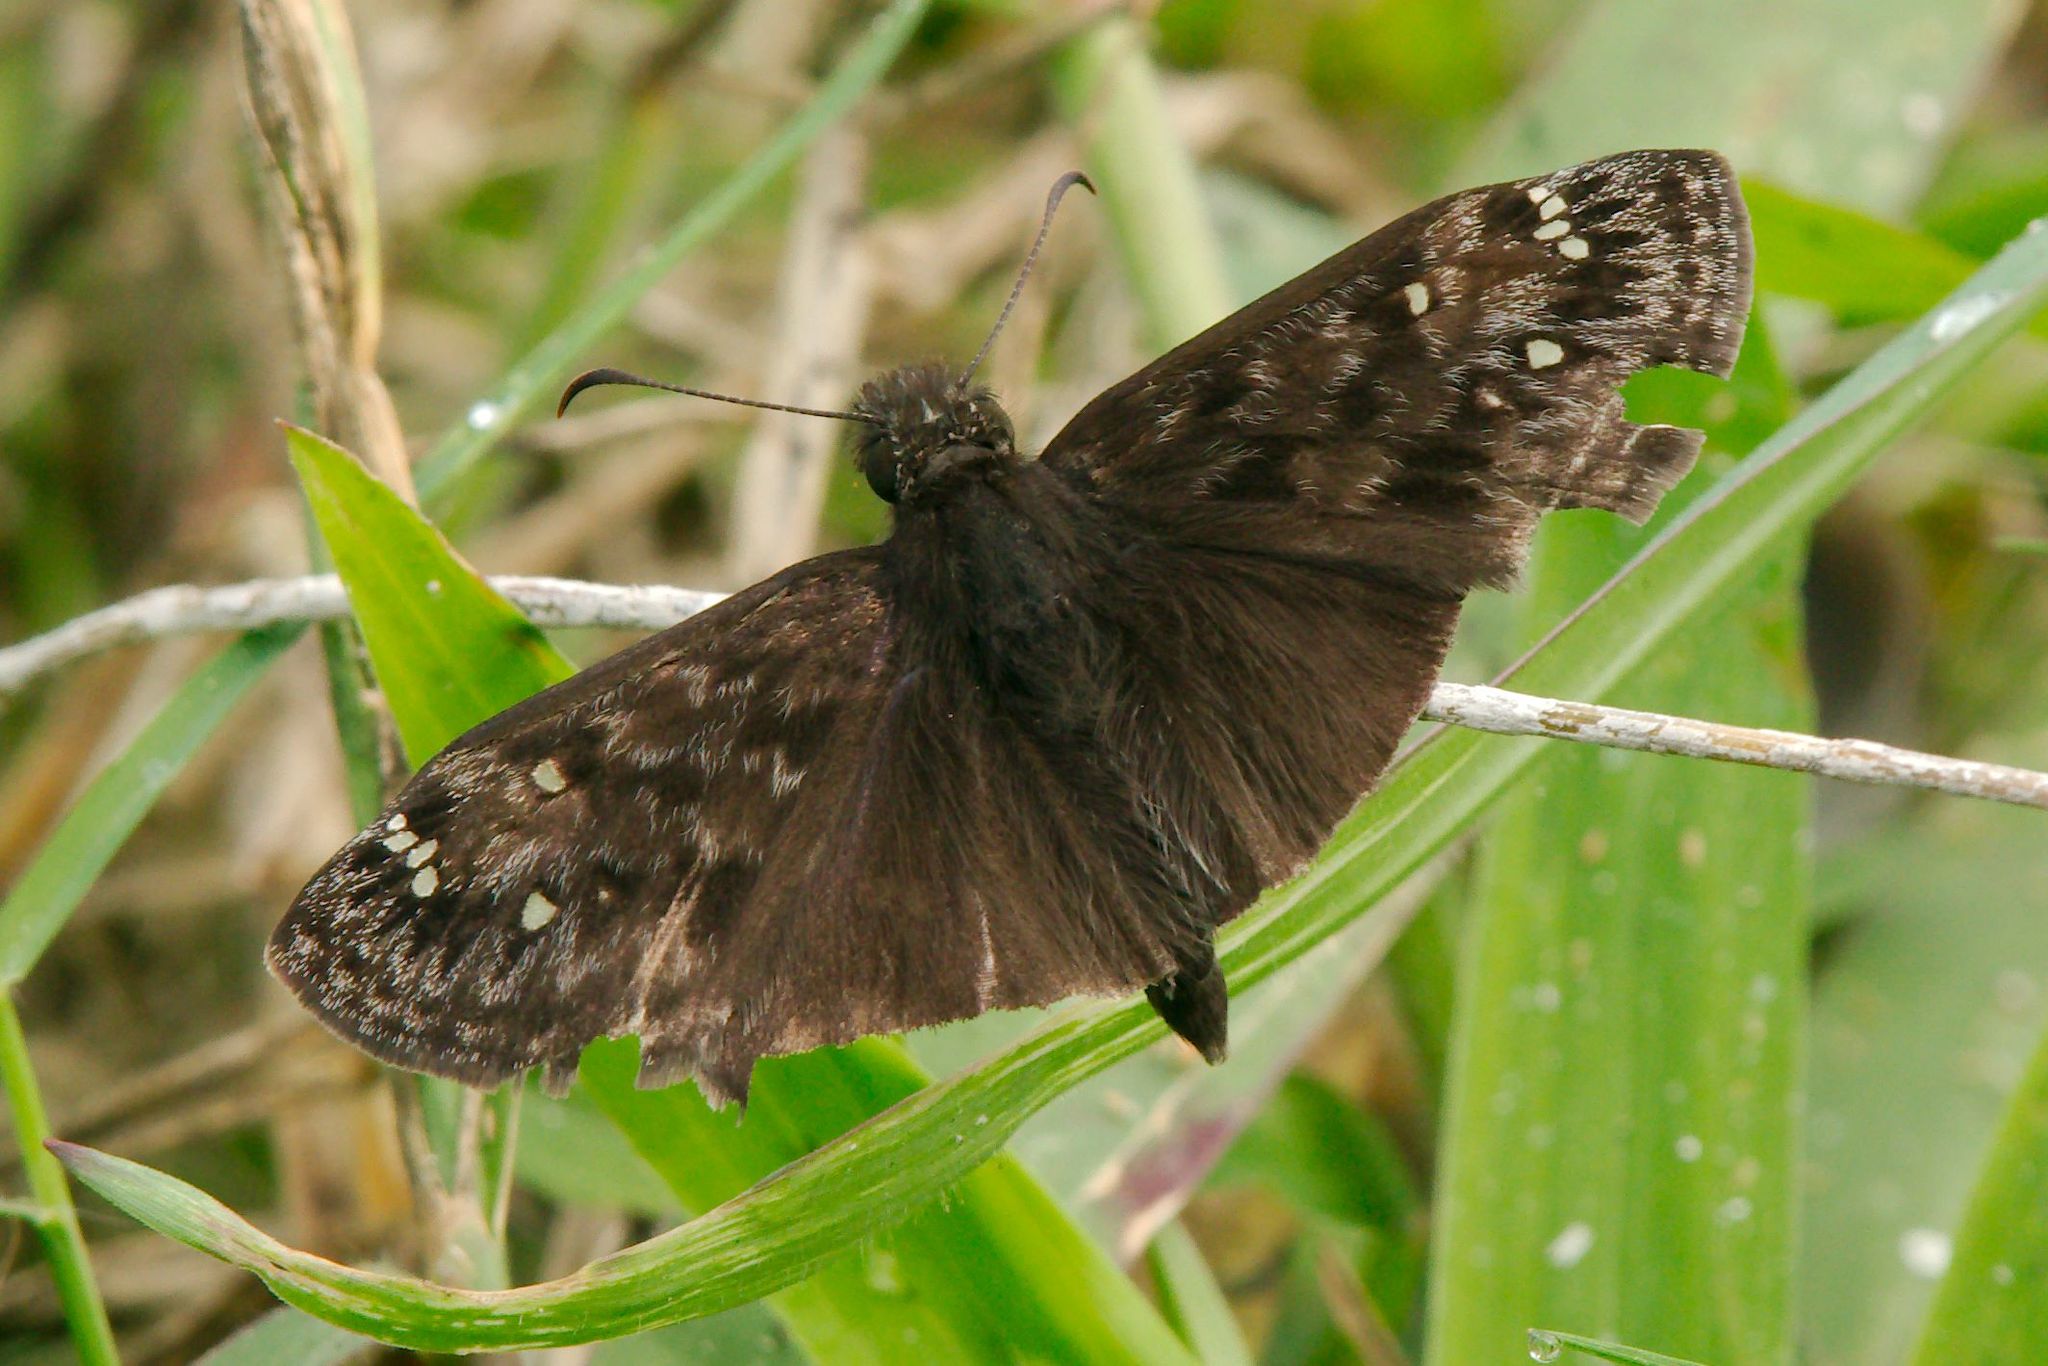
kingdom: Animalia
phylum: Arthropoda
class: Insecta
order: Lepidoptera
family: Hesperiidae
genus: Erynnis
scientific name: Erynnis horatius
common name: Horace's duskywing
